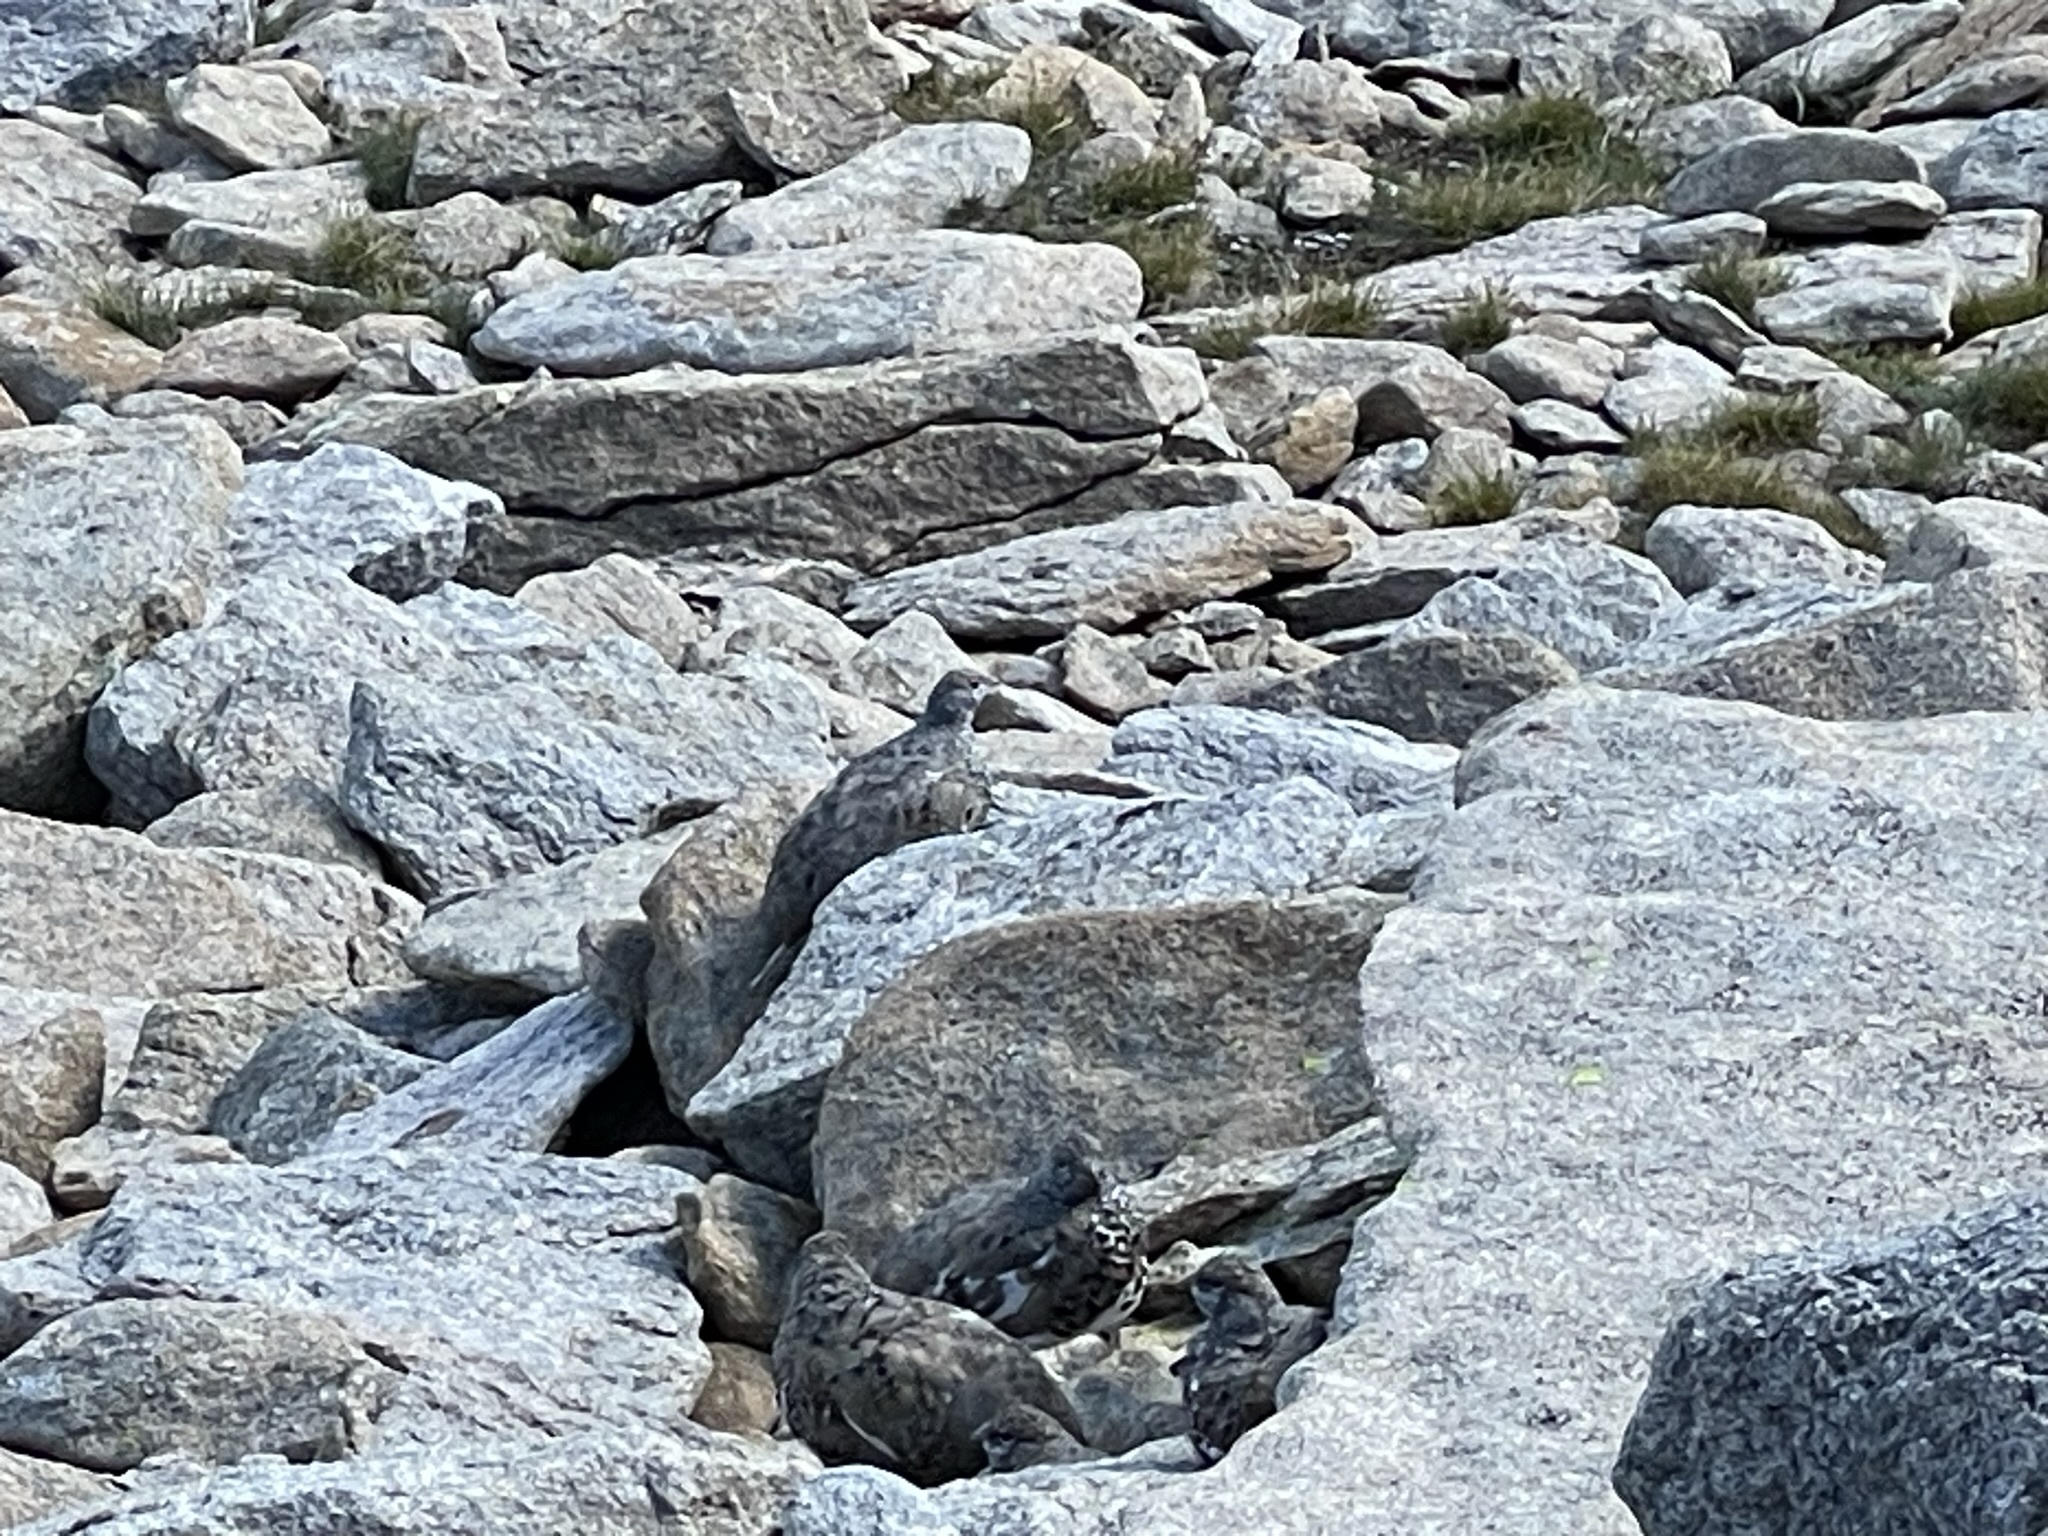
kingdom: Animalia
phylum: Chordata
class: Aves
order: Galliformes
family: Phasianidae
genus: Lagopus
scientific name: Lagopus leucura
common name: White-tailed ptarmigan
